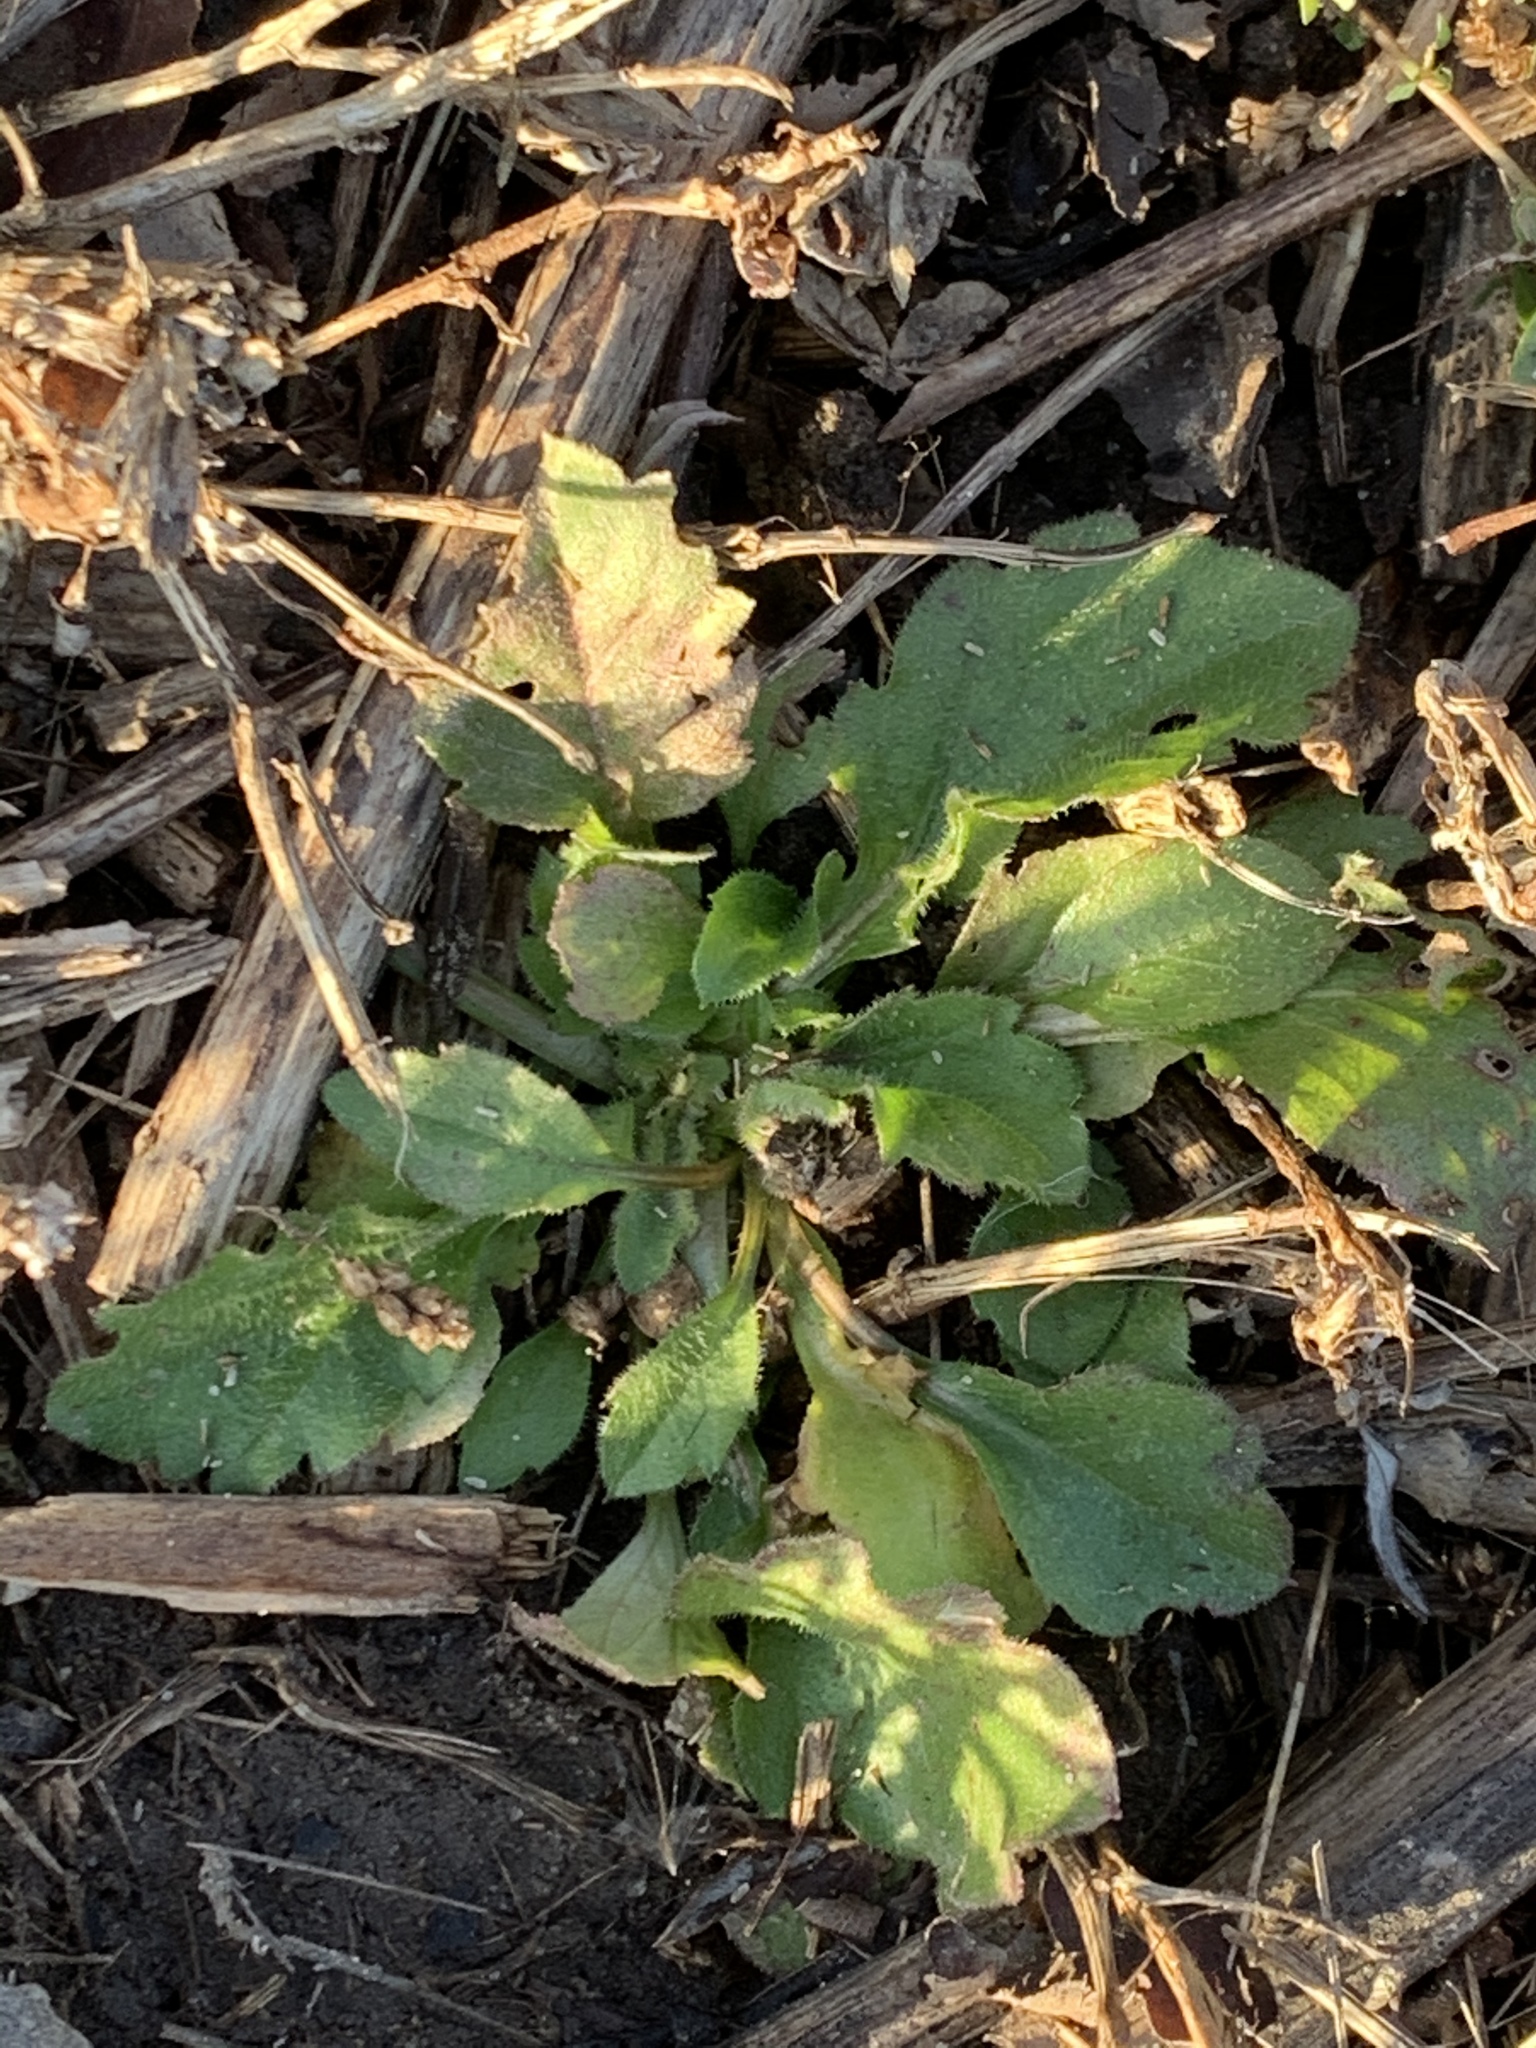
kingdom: Plantae
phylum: Tracheophyta
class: Magnoliopsida
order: Asterales
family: Asteraceae
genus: Erigeron
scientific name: Erigeron canadensis
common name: Canadian fleabane
